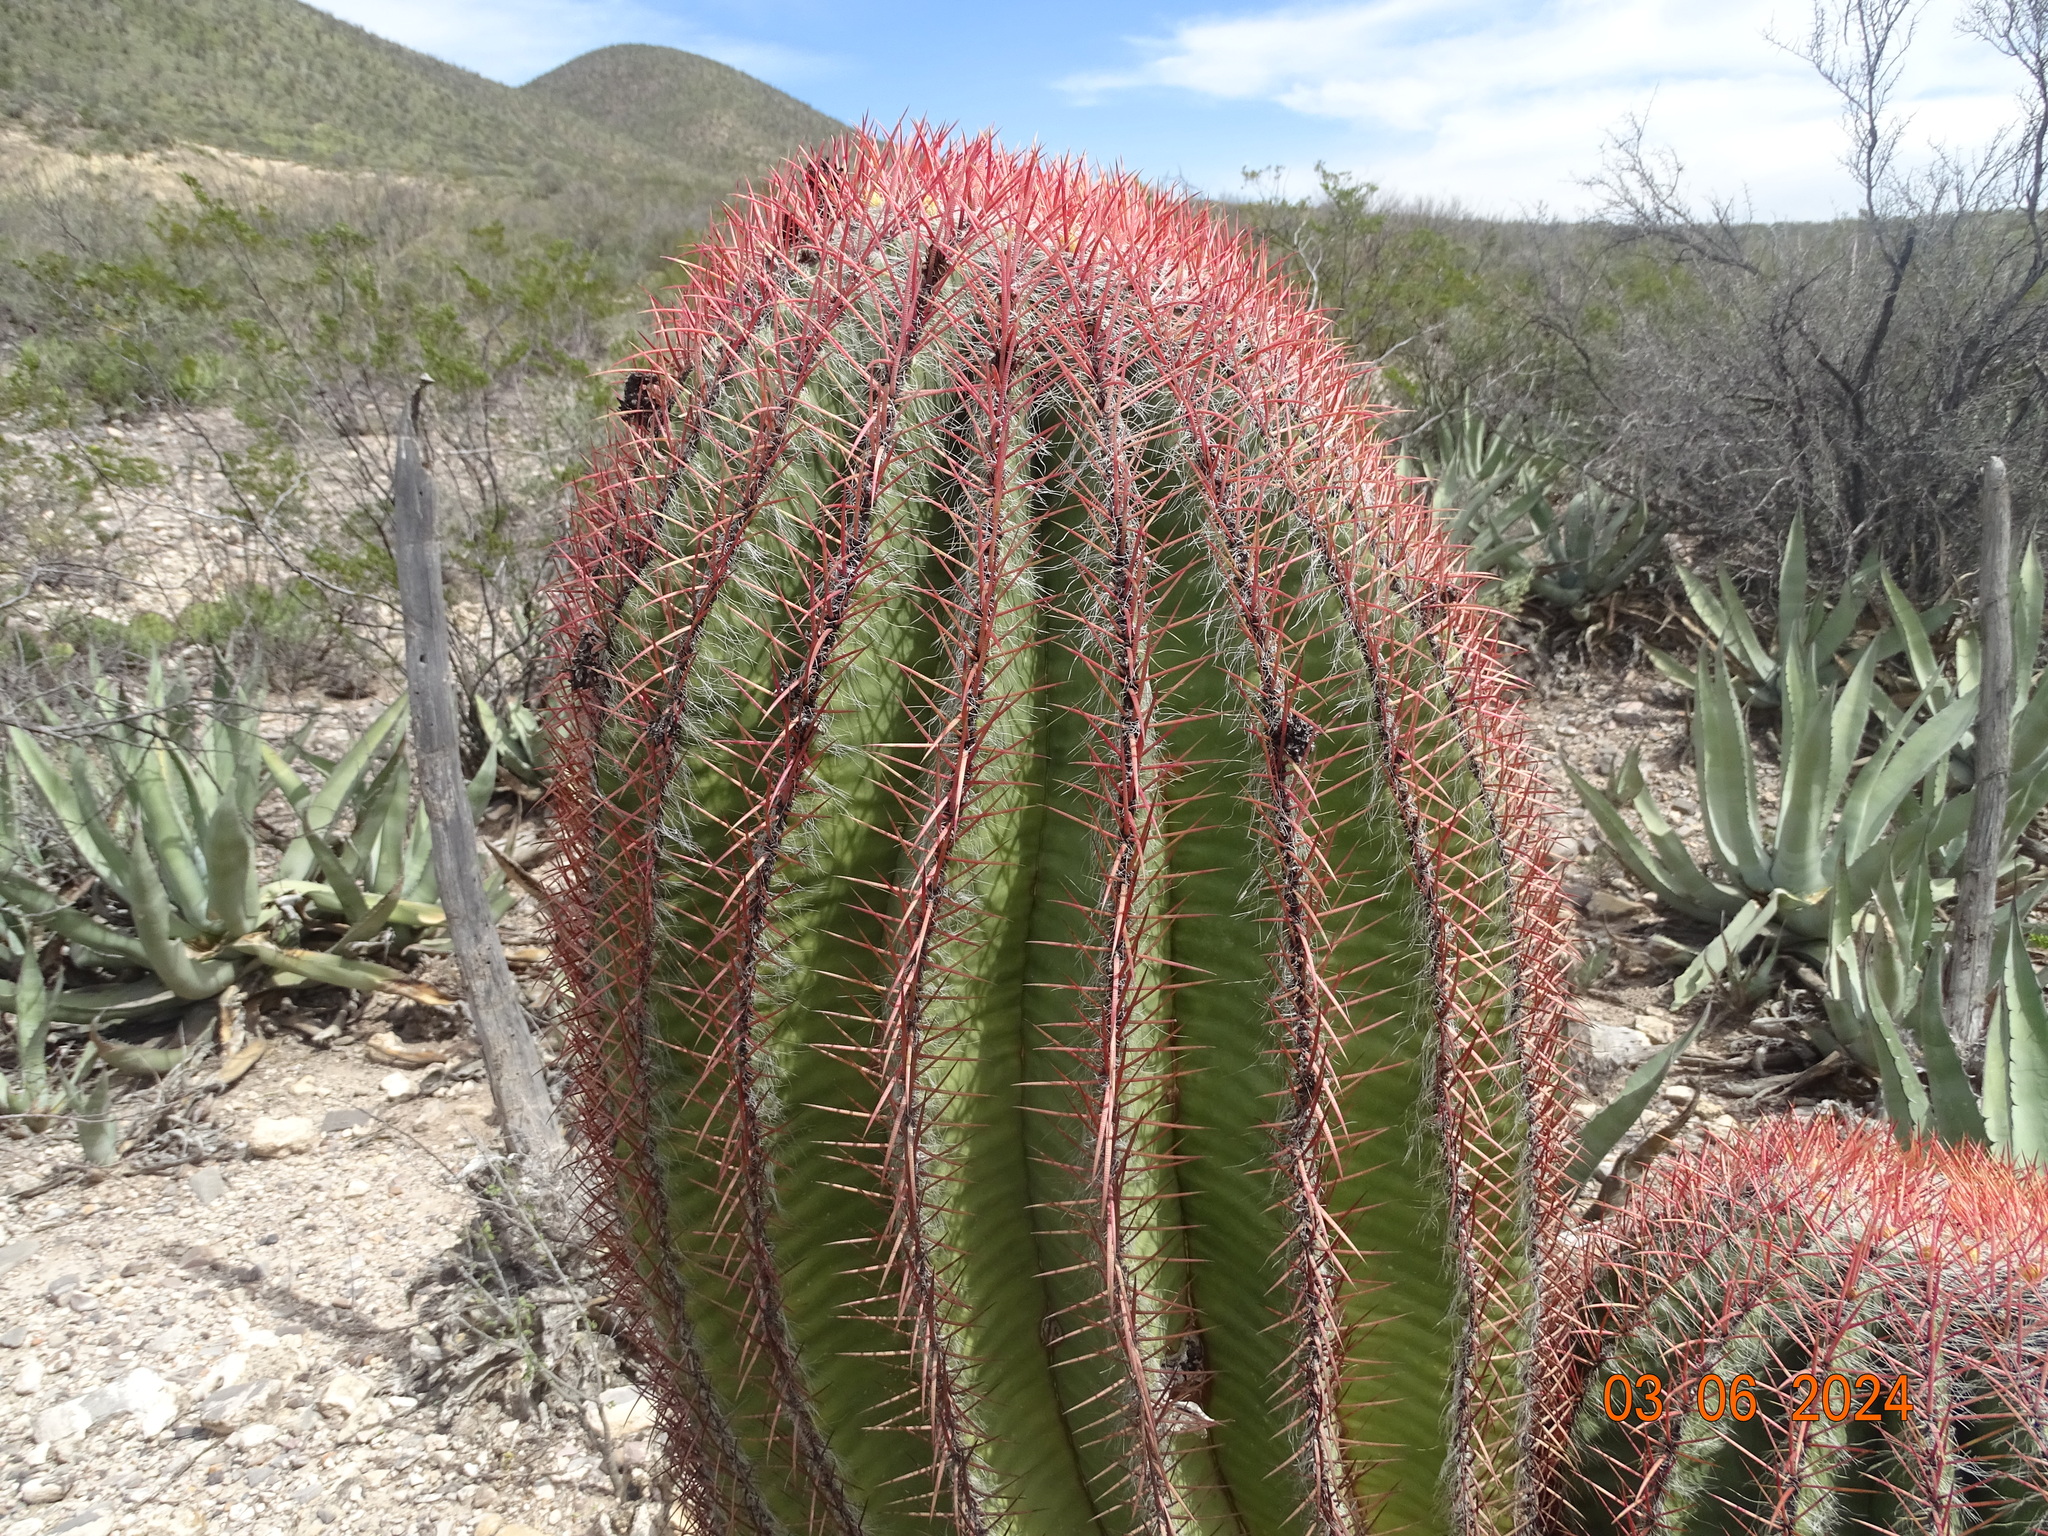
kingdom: Plantae
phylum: Tracheophyta
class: Magnoliopsida
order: Caryophyllales
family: Cactaceae
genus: Ferocactus
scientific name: Ferocactus pilosus
